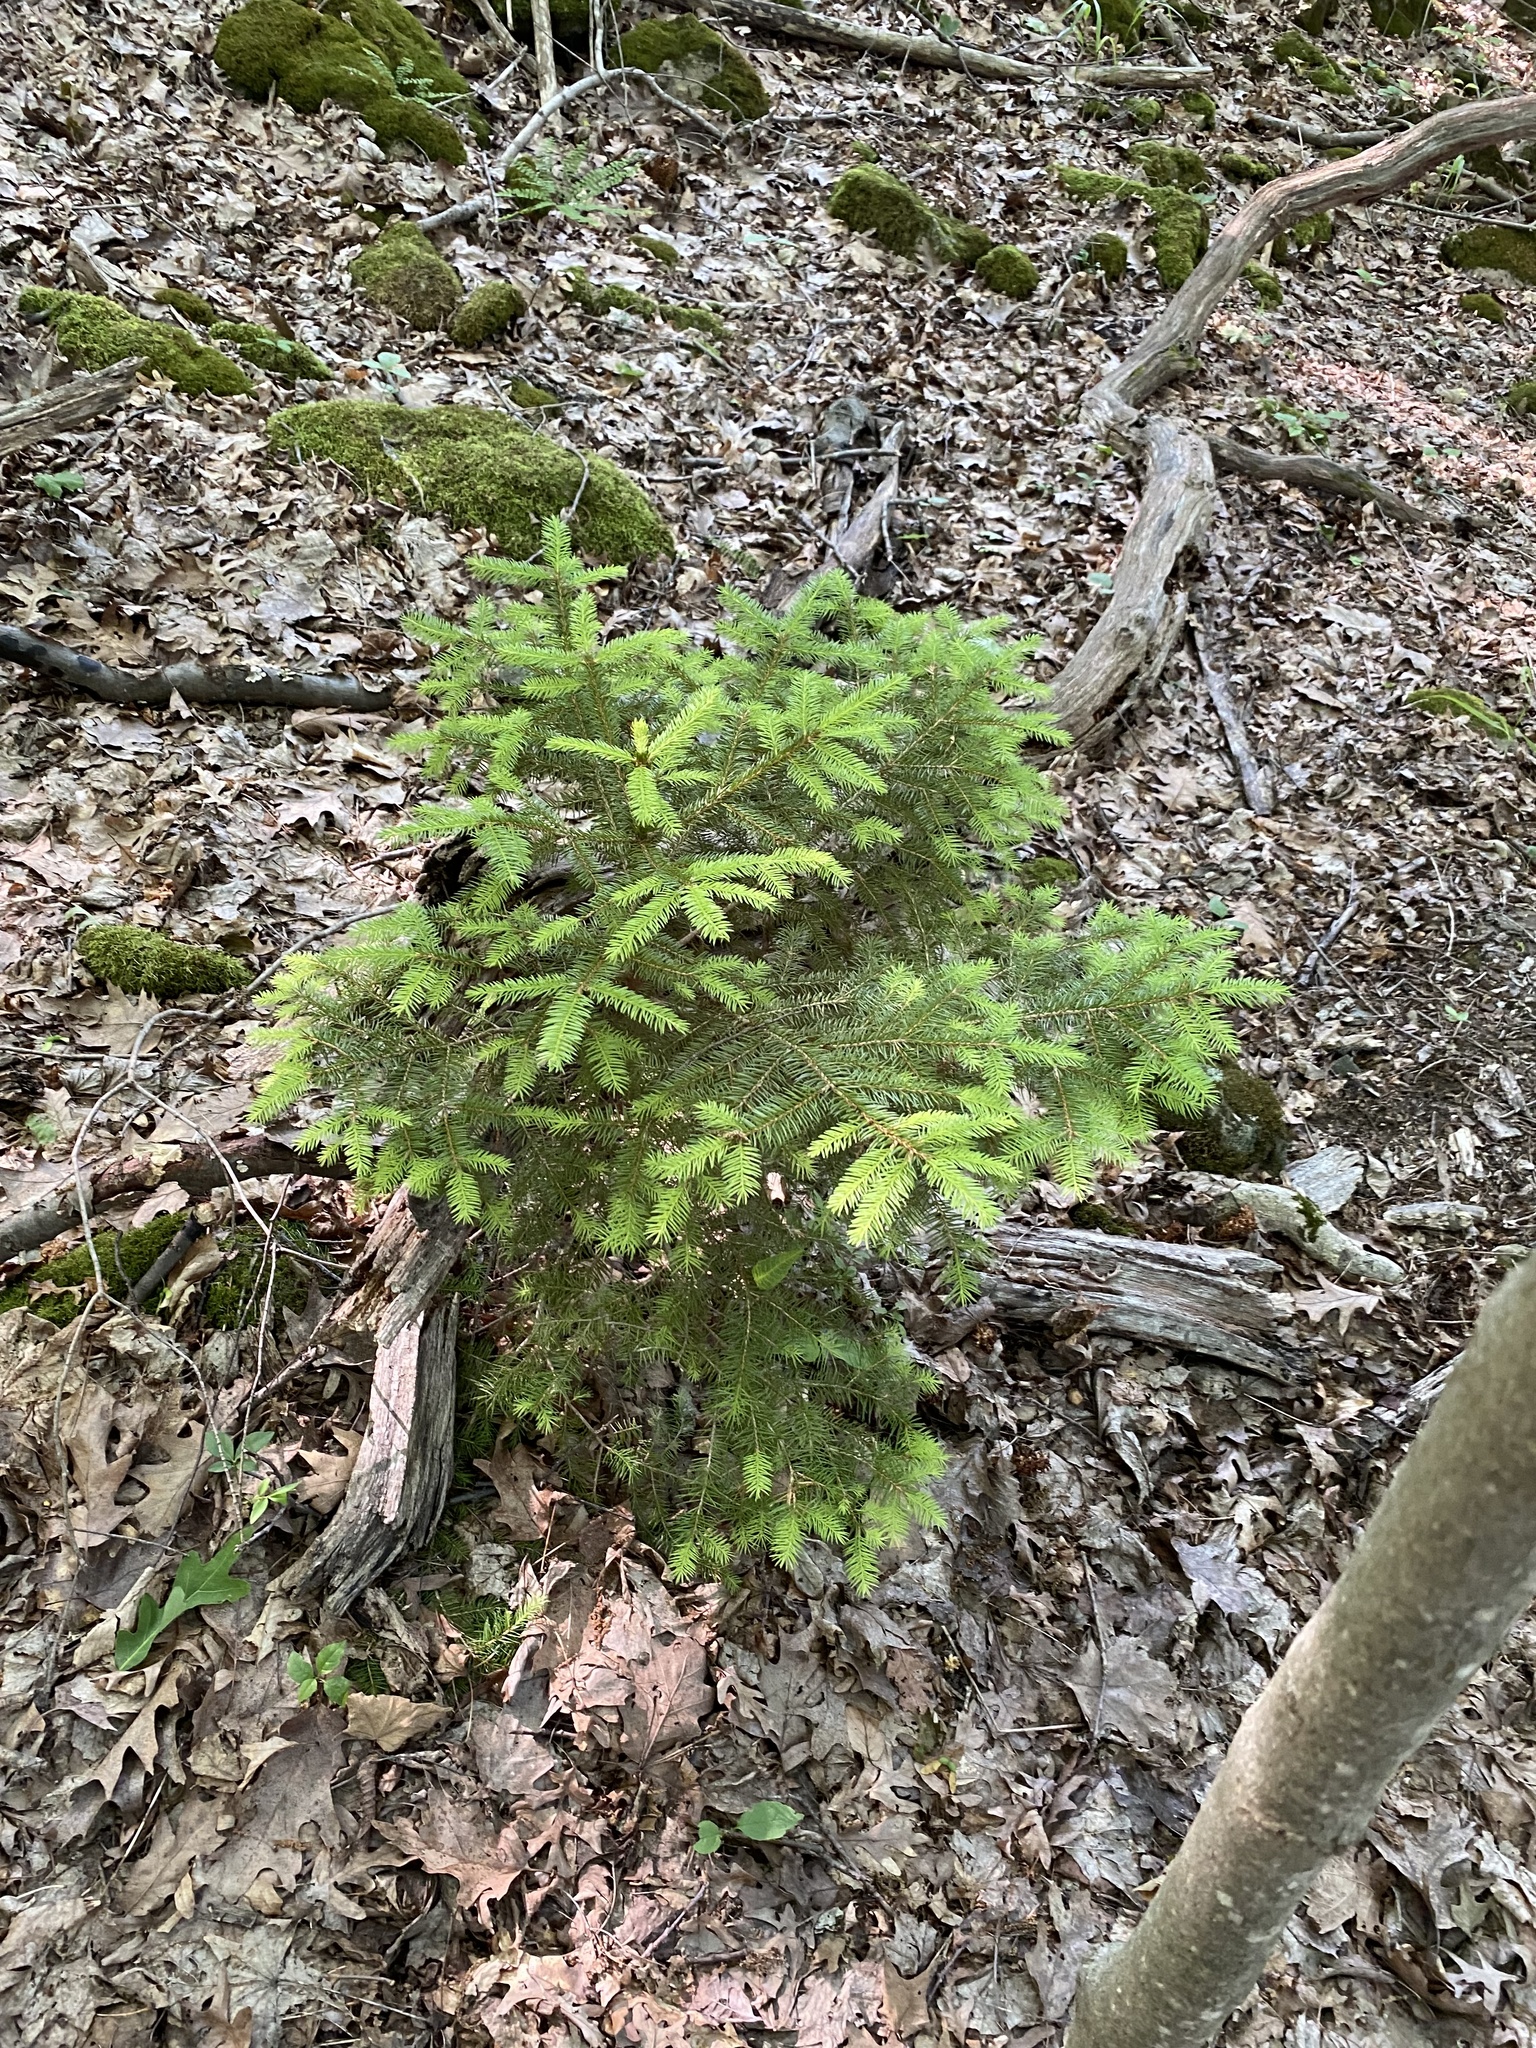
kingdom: Plantae
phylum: Tracheophyta
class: Pinopsida
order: Pinales
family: Pinaceae
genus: Picea
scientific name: Picea abies
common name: Norway spruce
